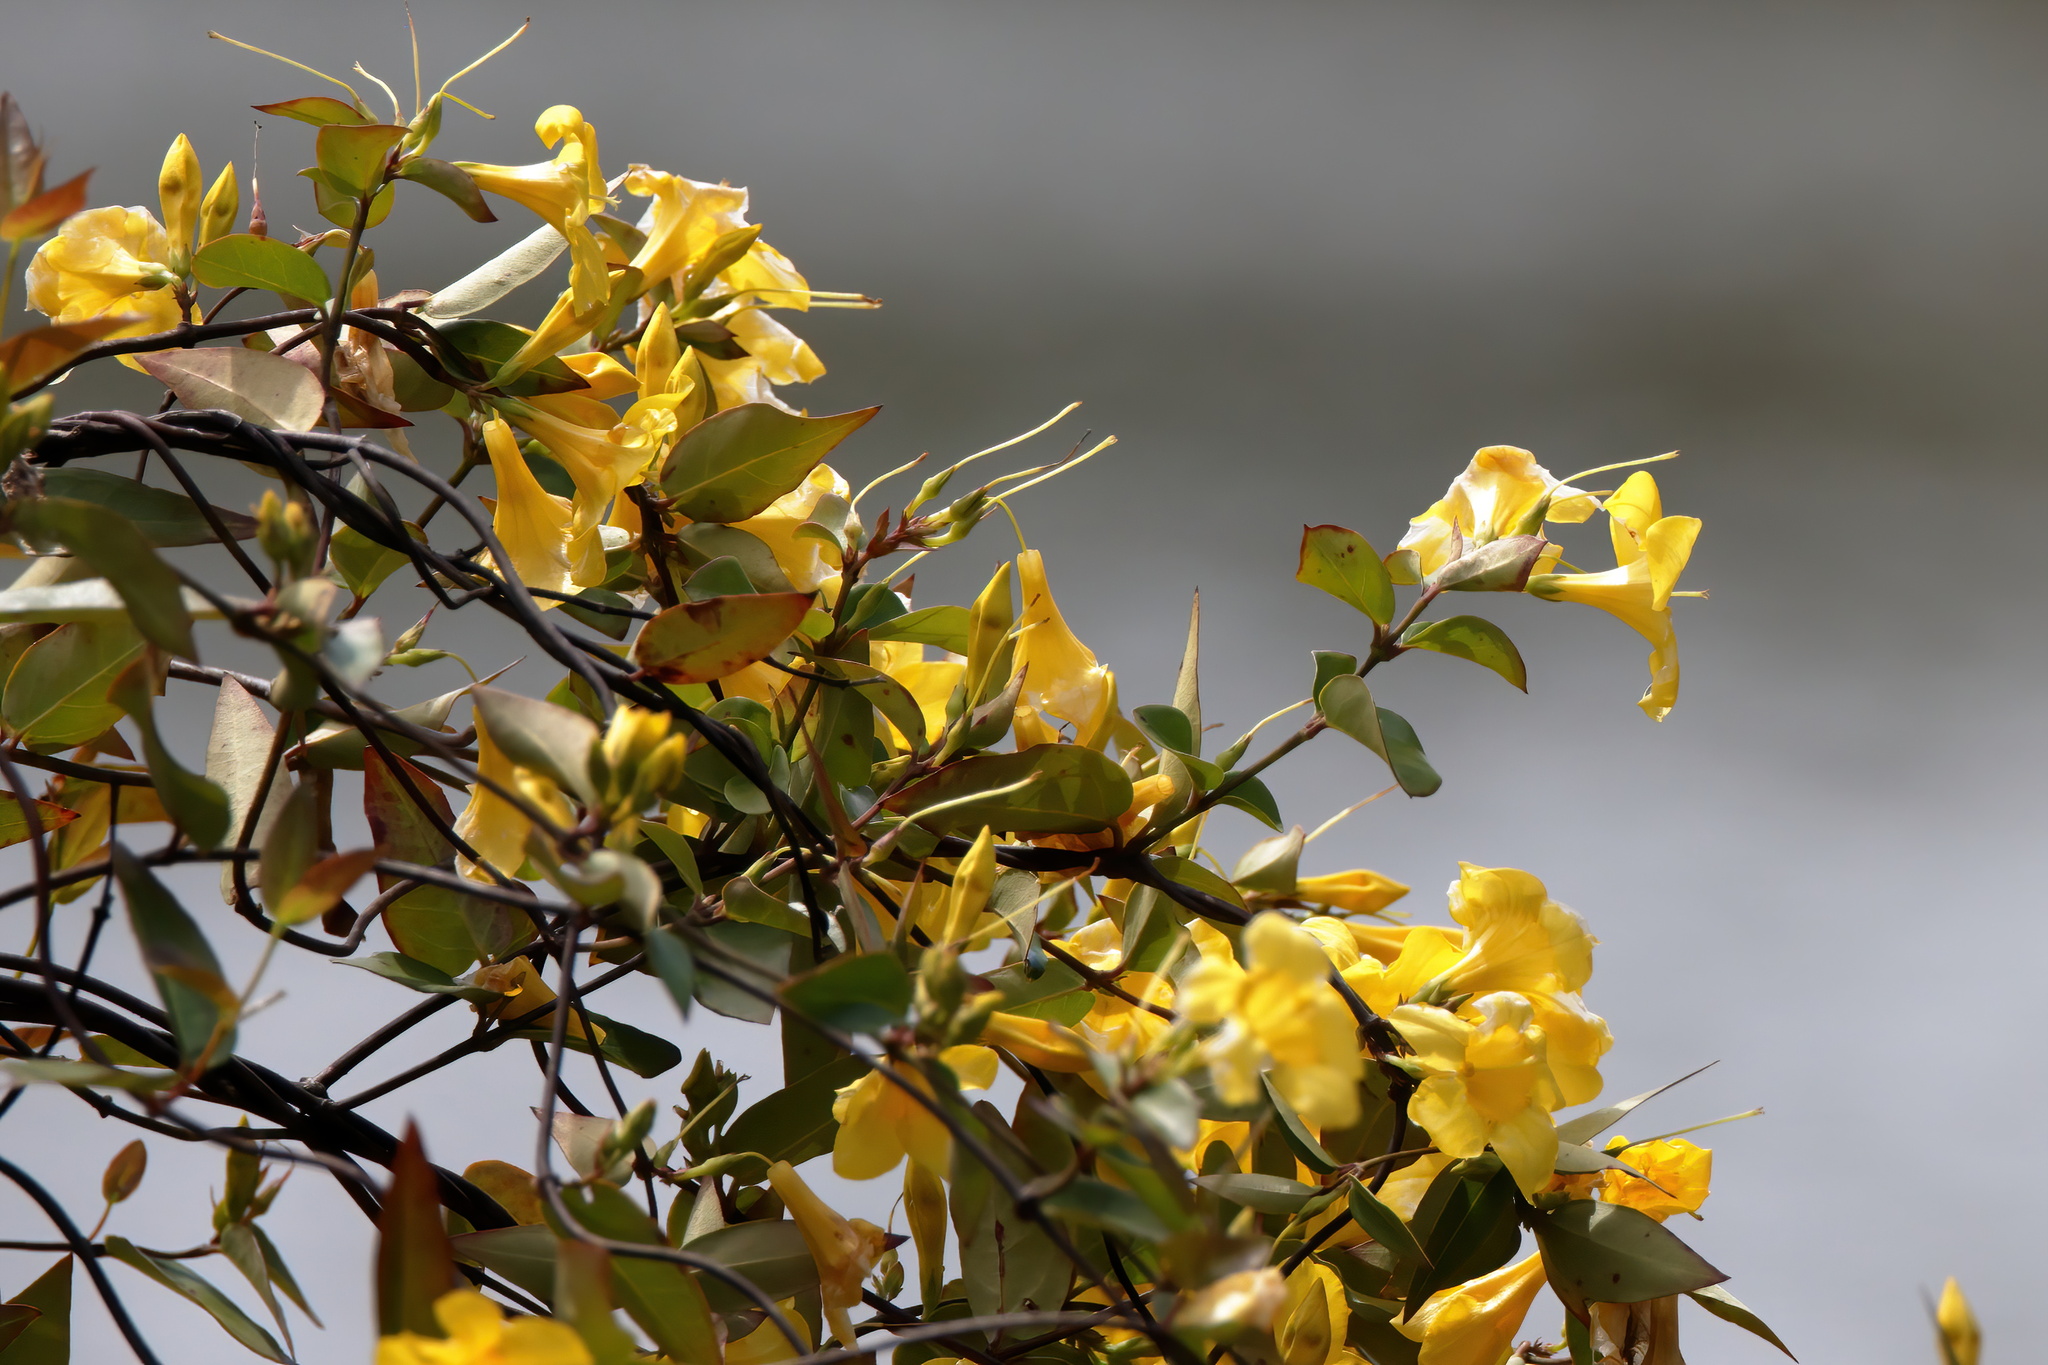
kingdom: Plantae
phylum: Tracheophyta
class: Magnoliopsida
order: Gentianales
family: Gelsemiaceae
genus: Gelsemium
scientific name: Gelsemium rankinii
